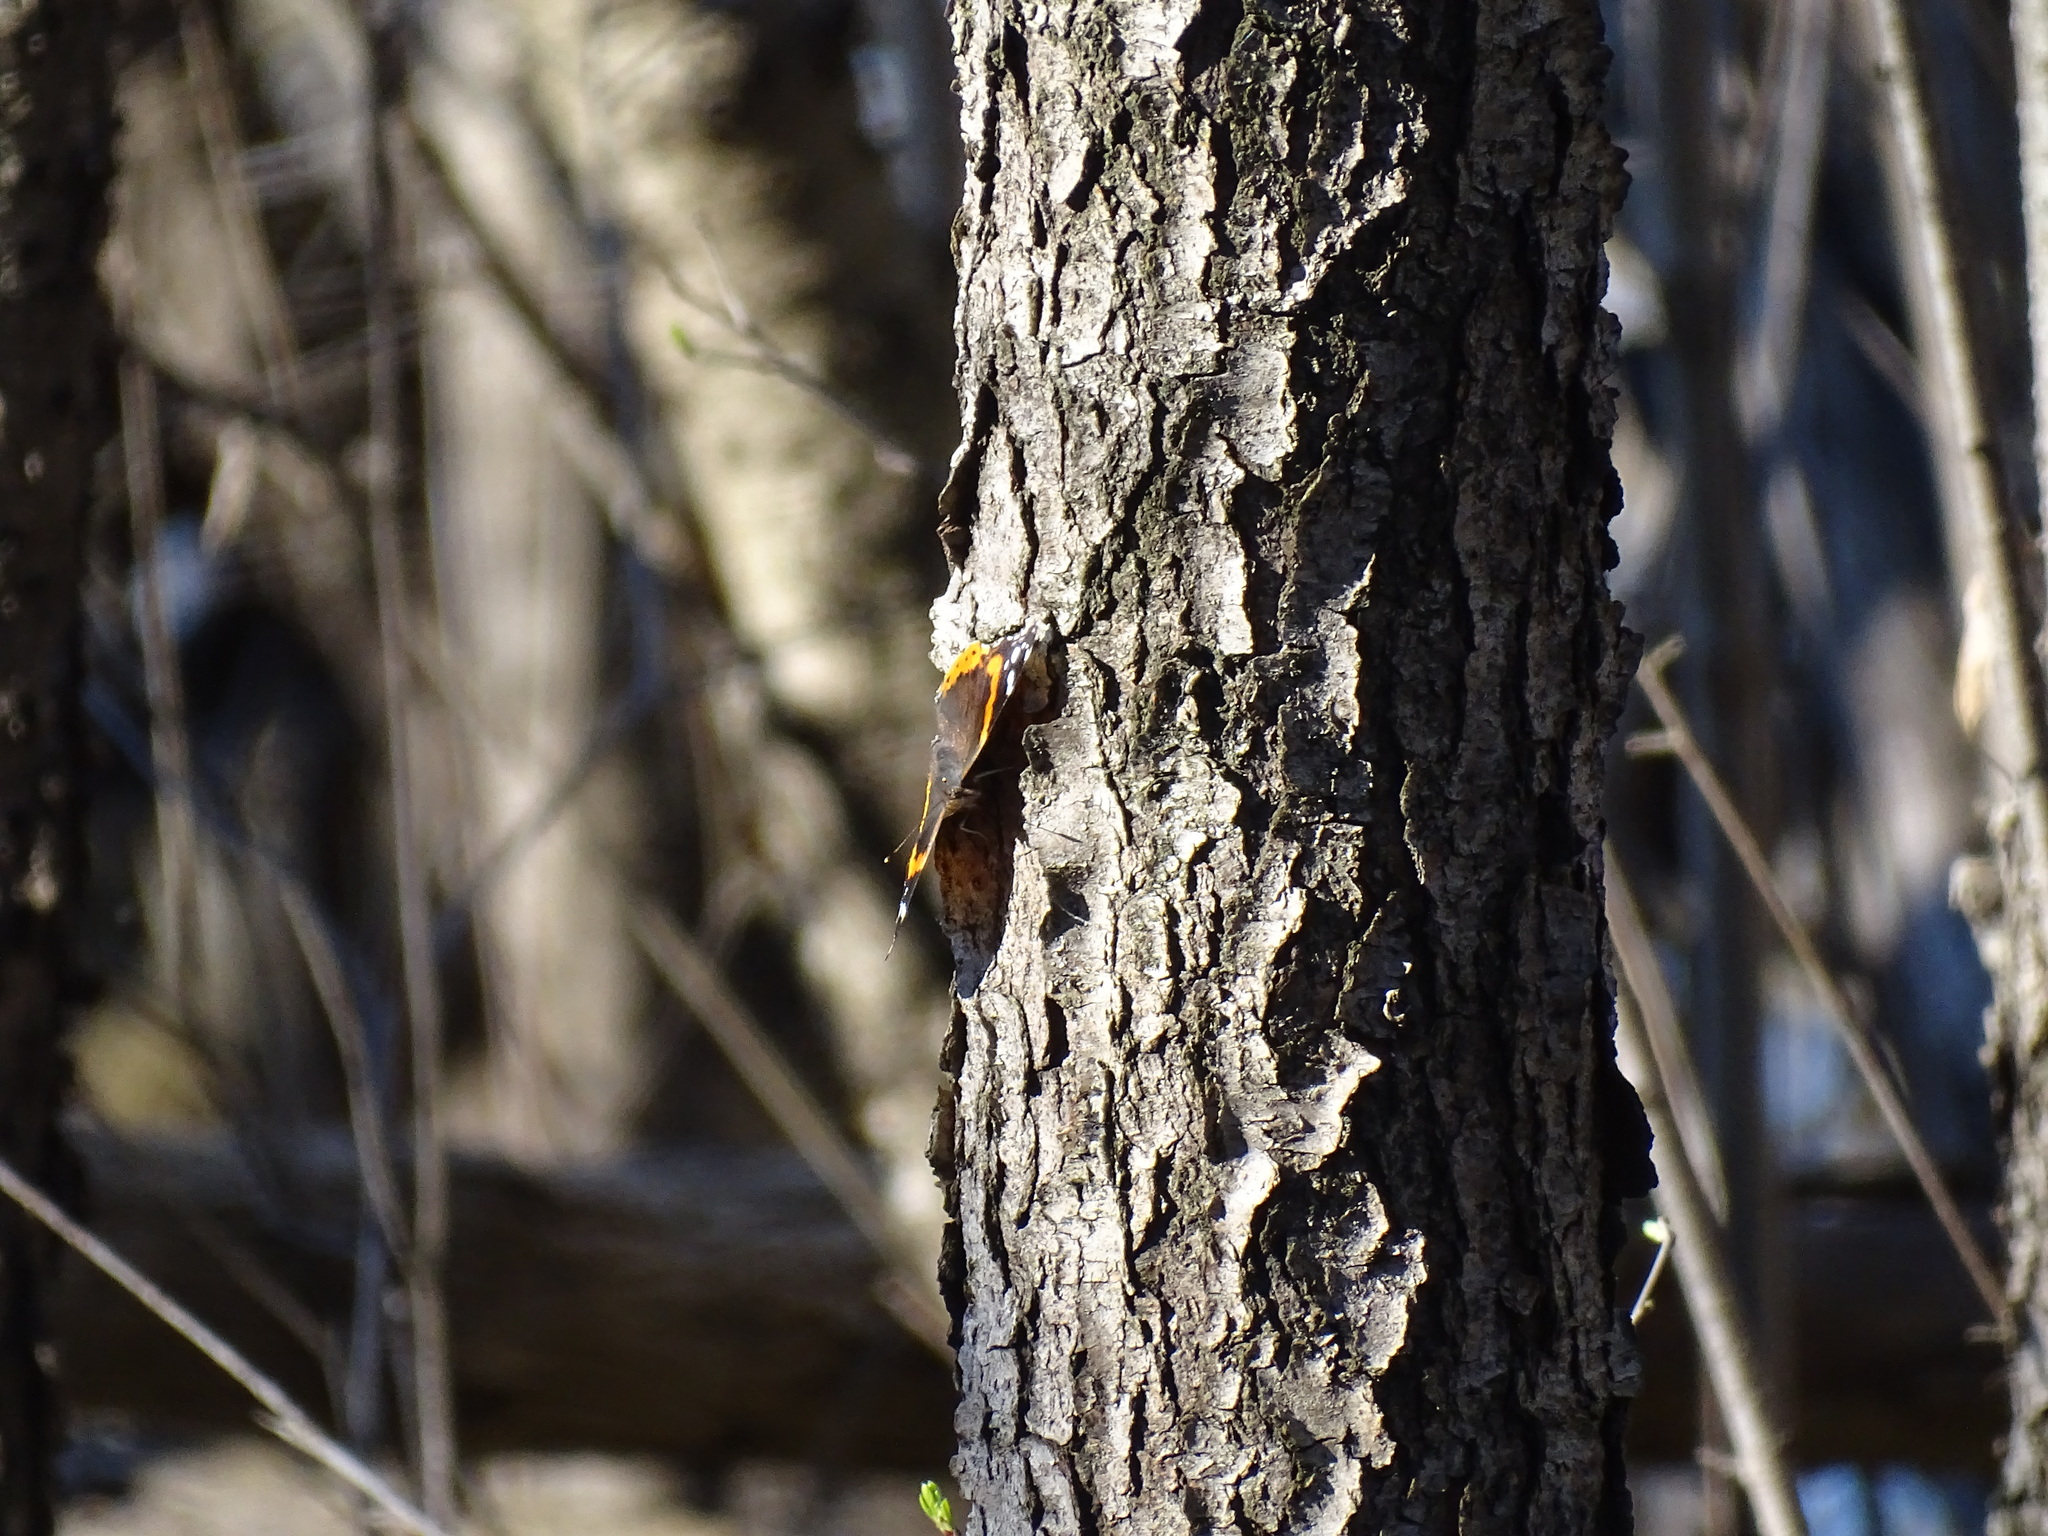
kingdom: Animalia
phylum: Arthropoda
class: Insecta
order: Lepidoptera
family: Nymphalidae
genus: Vanessa
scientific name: Vanessa atalanta
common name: Red admiral
